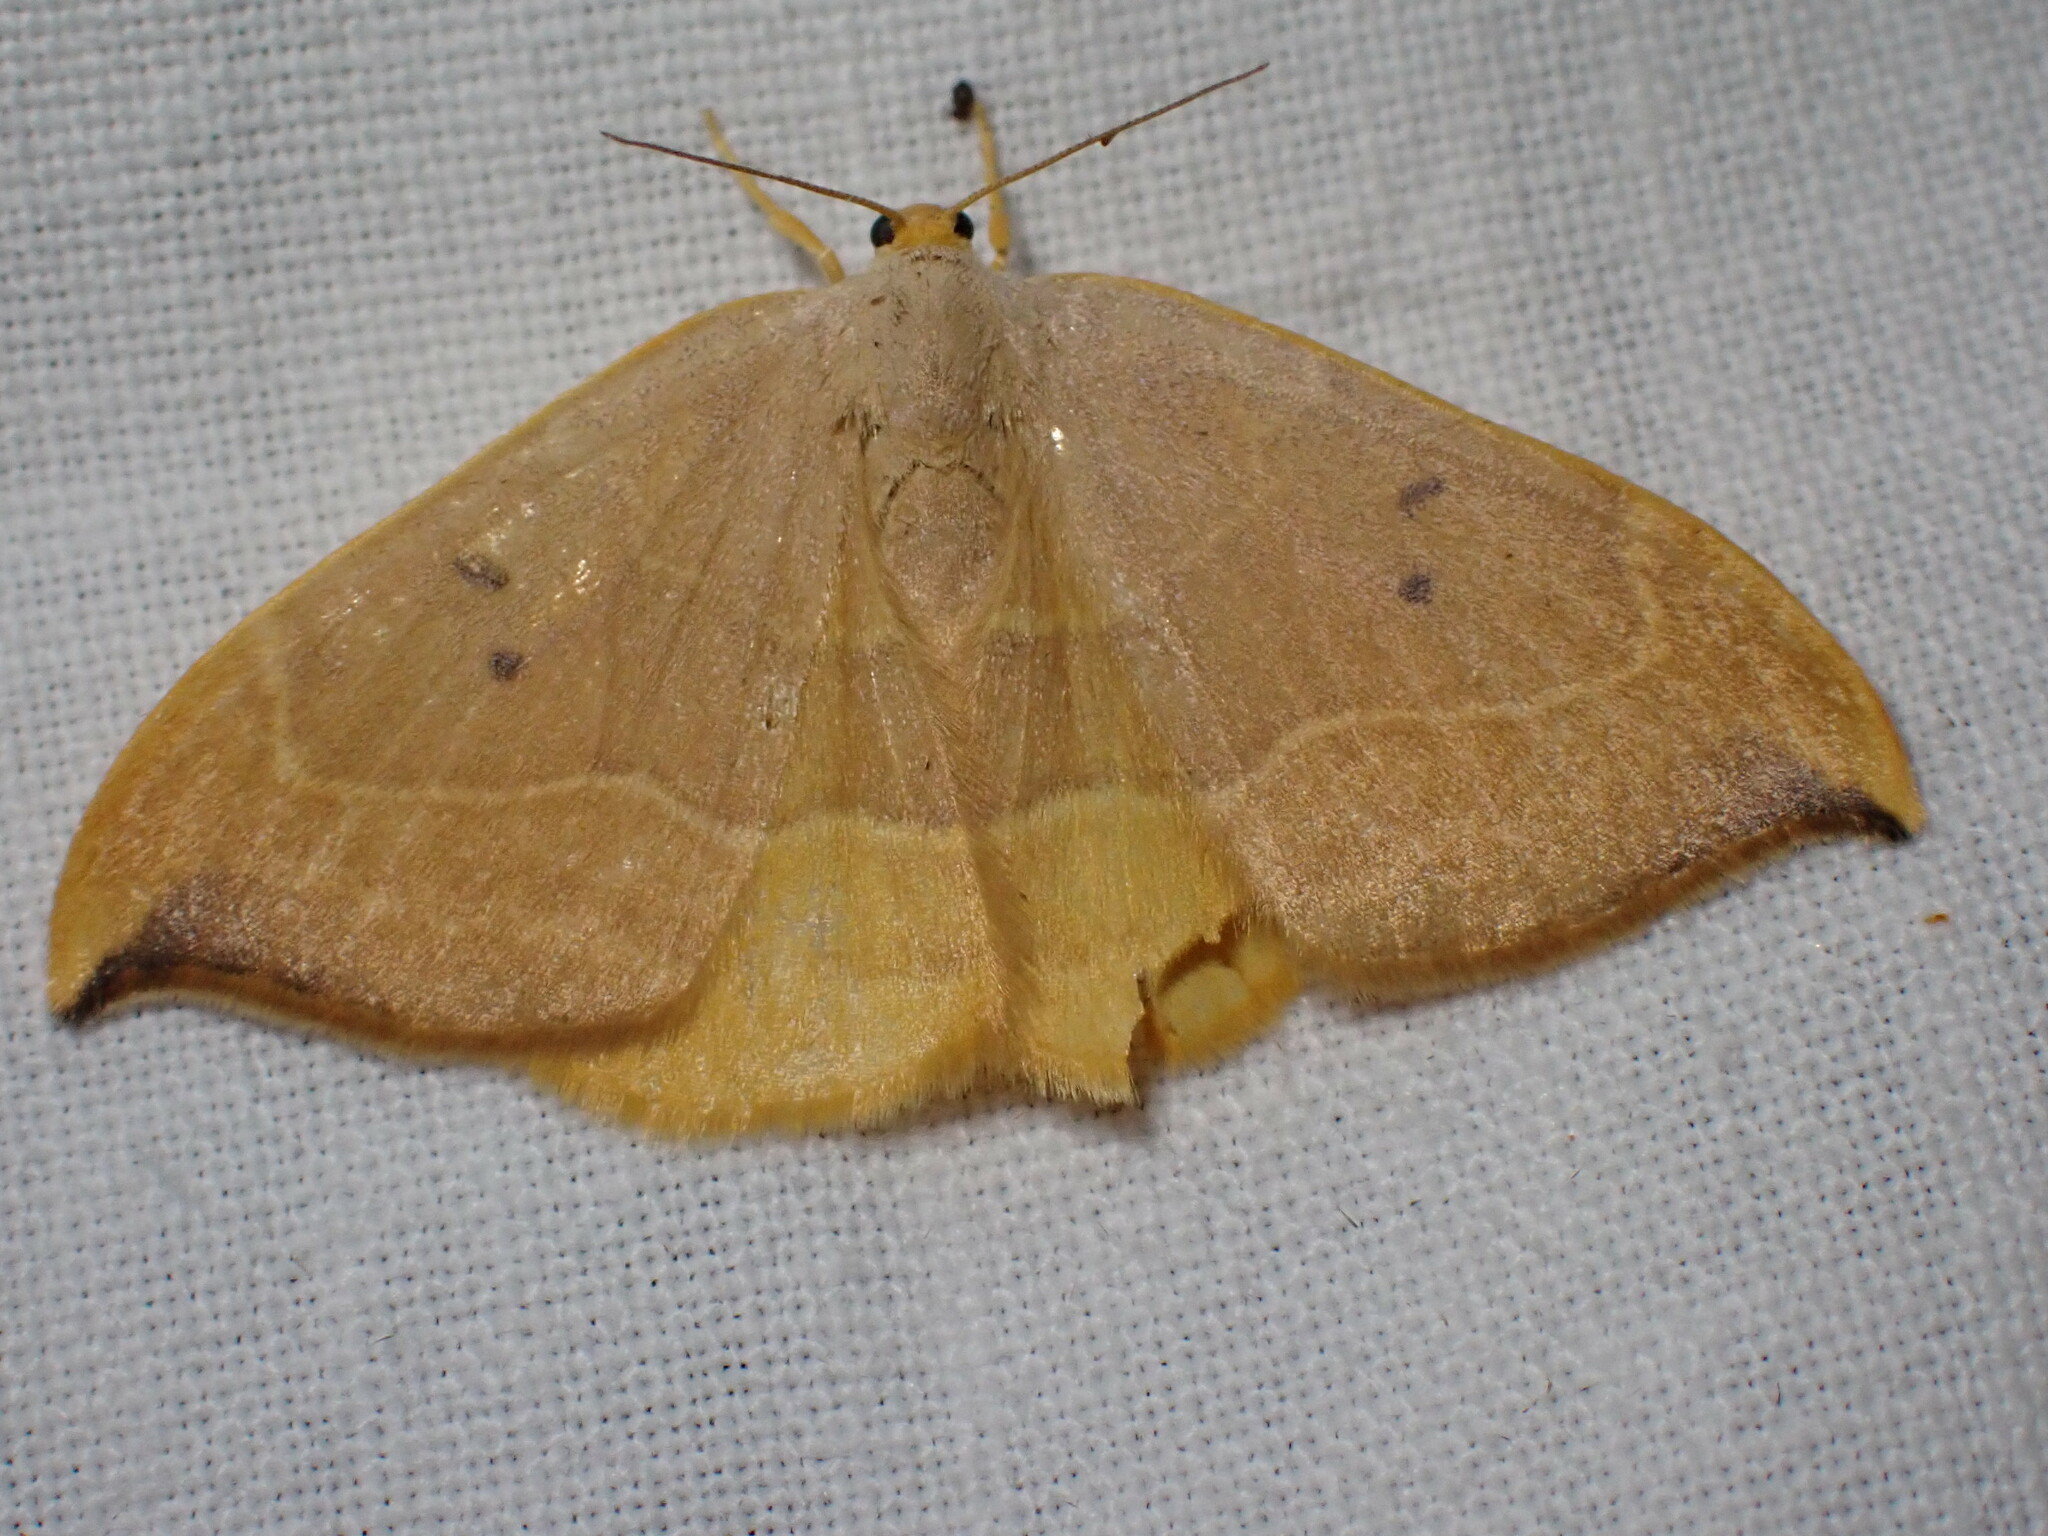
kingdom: Animalia
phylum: Arthropoda
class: Insecta
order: Lepidoptera
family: Drepanidae
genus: Watsonalla
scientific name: Watsonalla binaria
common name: Oak hook-tip
